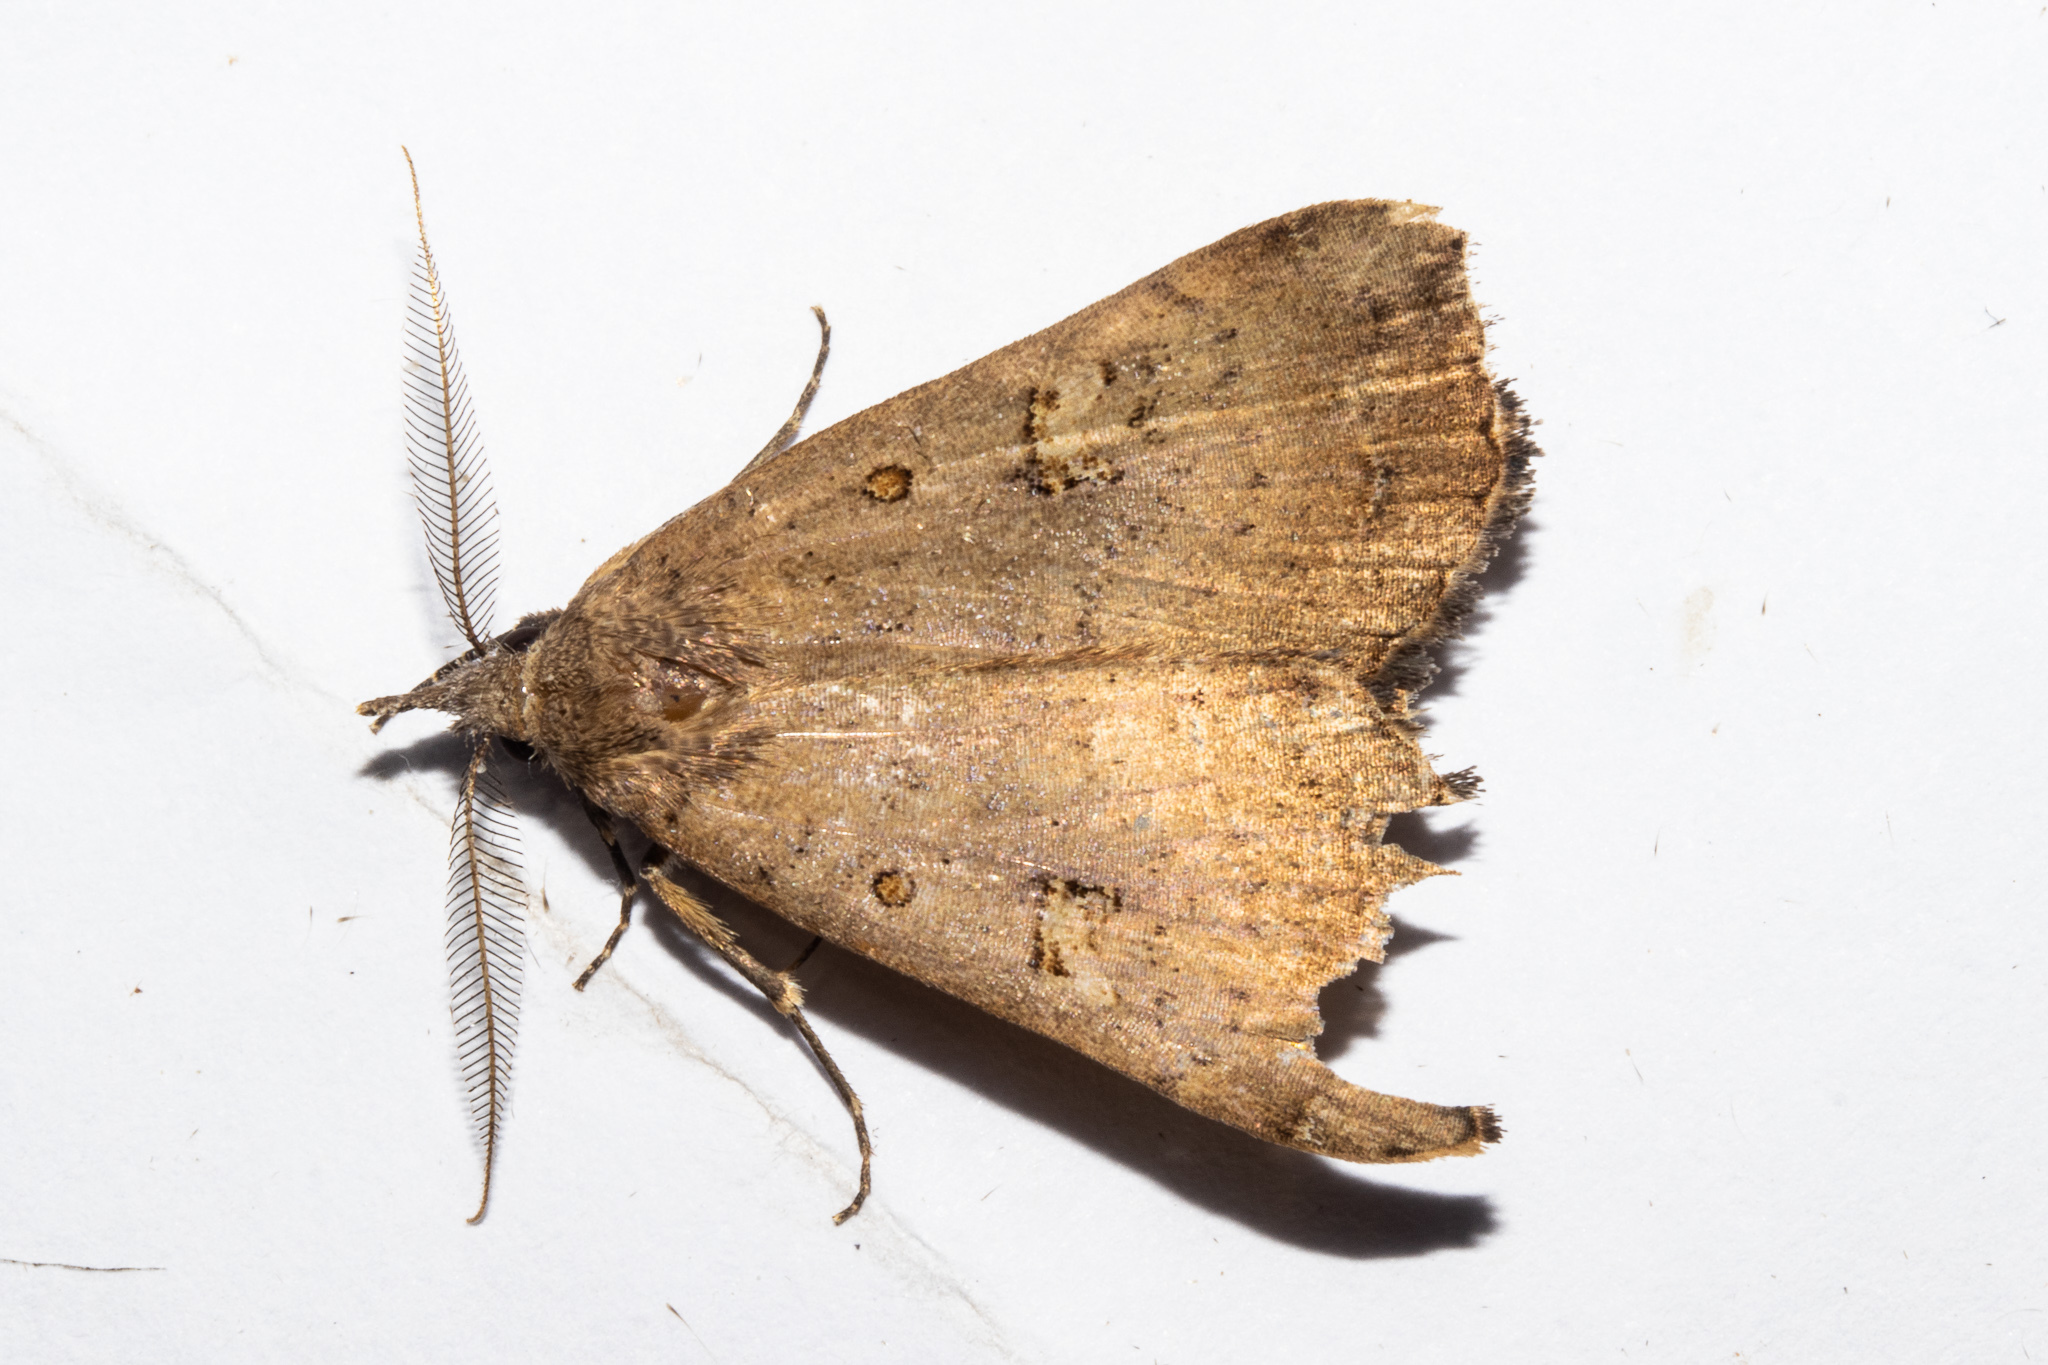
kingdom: Animalia
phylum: Arthropoda
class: Insecta
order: Lepidoptera
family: Erebidae
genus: Rhapsa
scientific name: Rhapsa scotosialis
